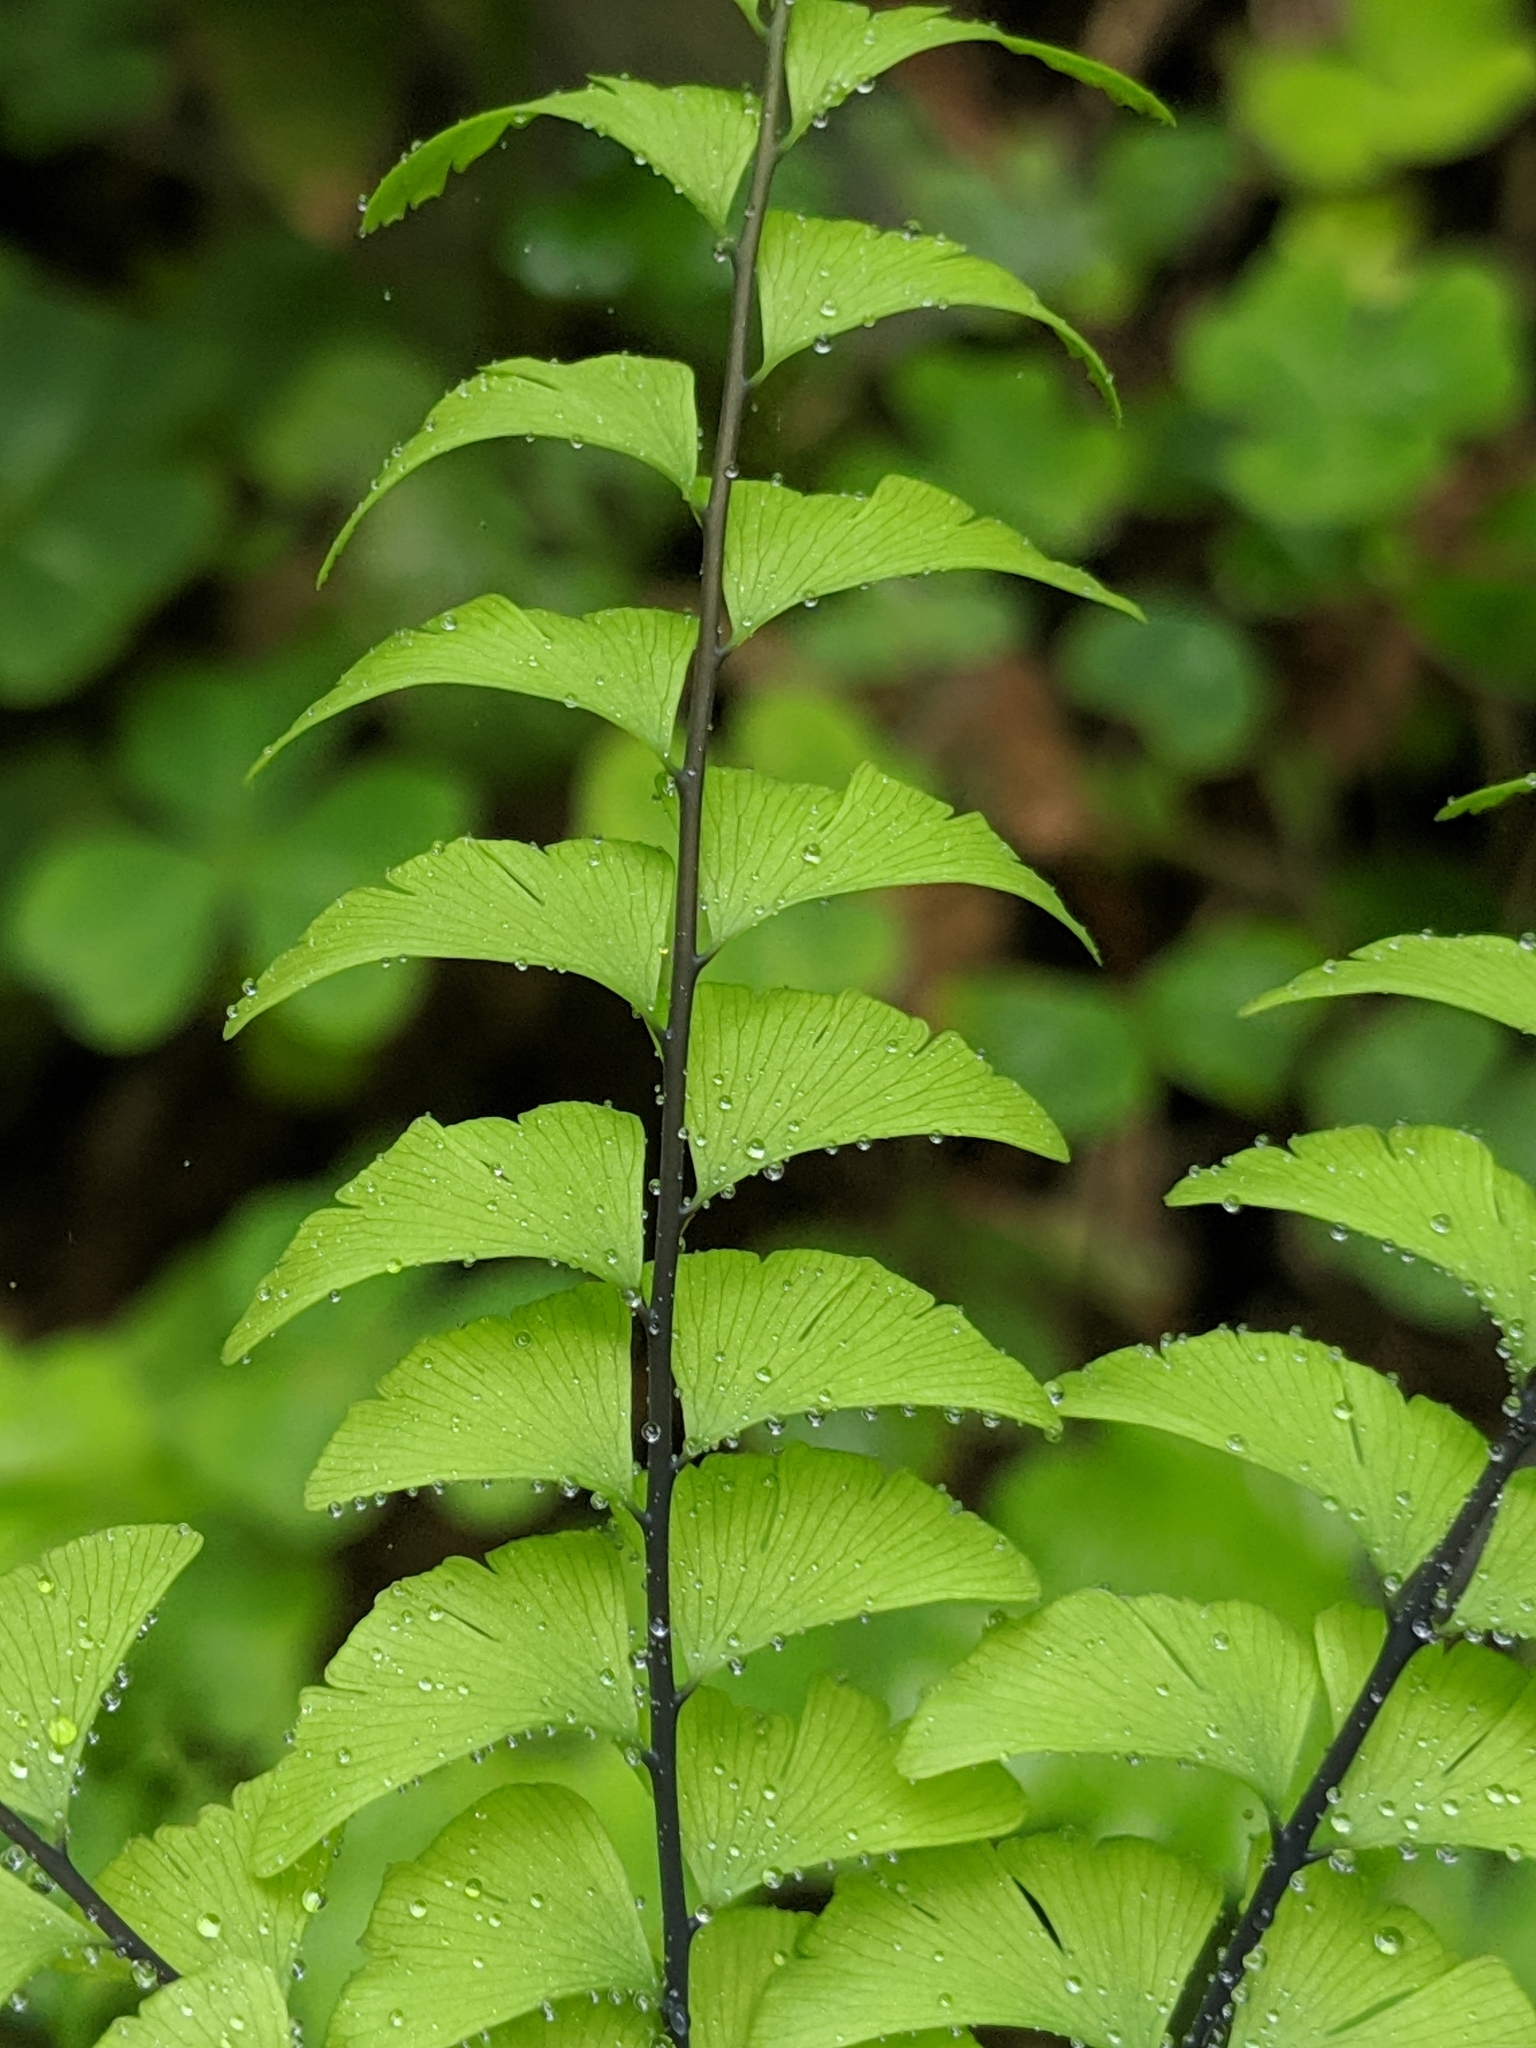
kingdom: Plantae
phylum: Tracheophyta
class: Polypodiopsida
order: Polypodiales
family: Pteridaceae
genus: Adiantum
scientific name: Adiantum aleuticum
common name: Aleutian maidenhair fern
